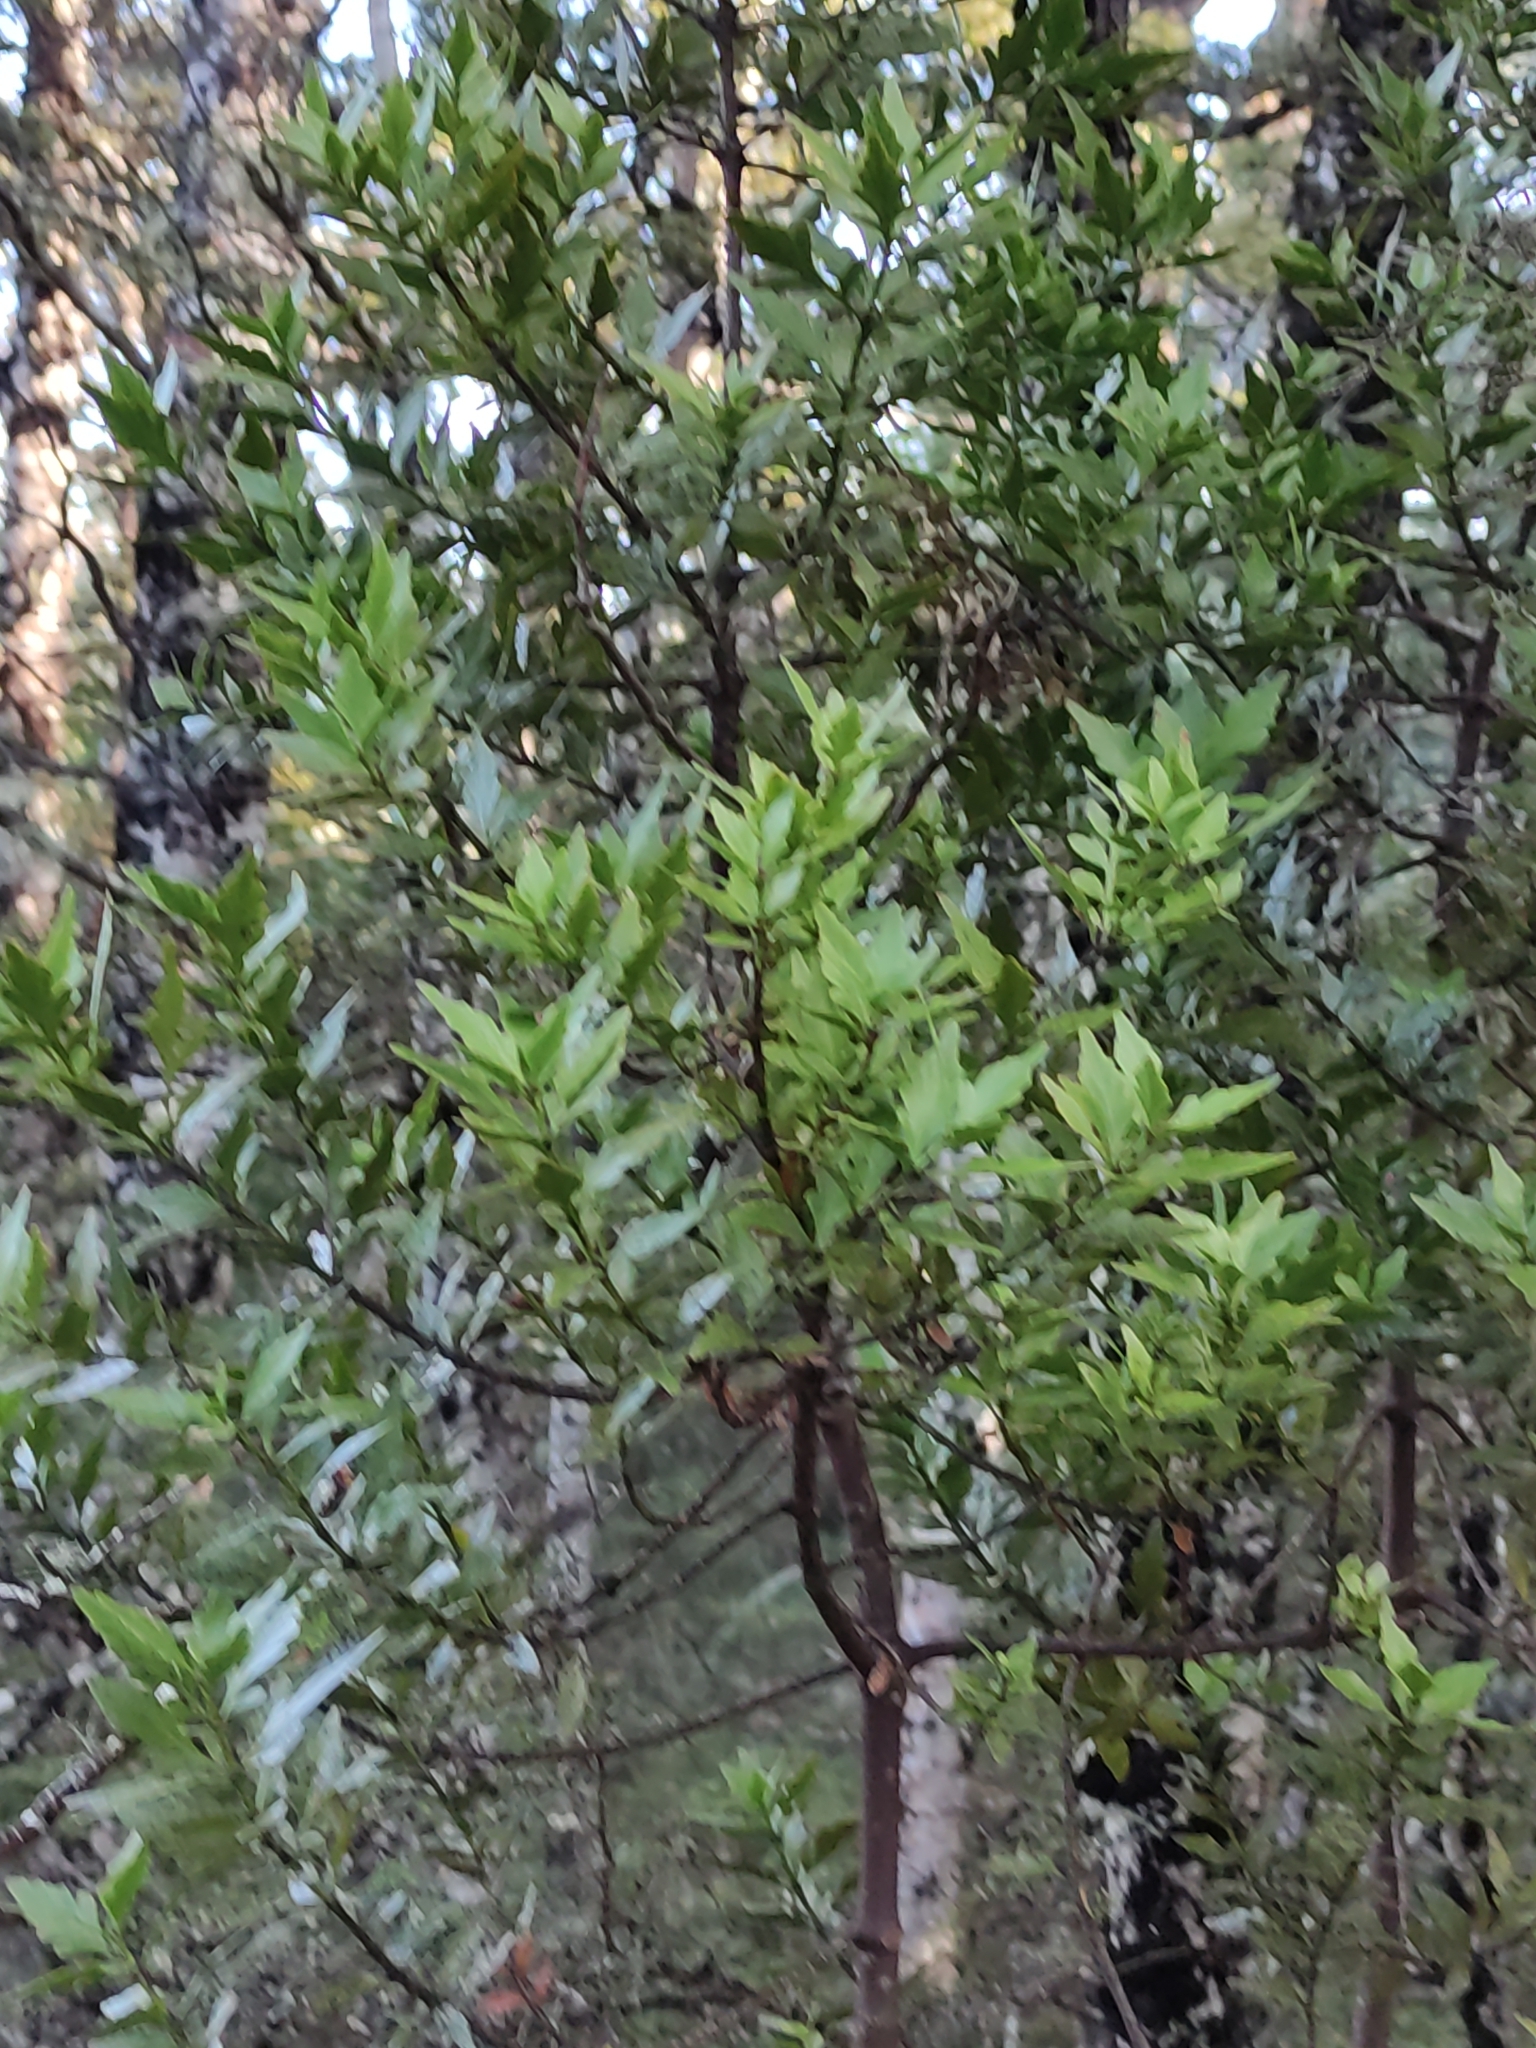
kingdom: Plantae
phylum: Tracheophyta
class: Pinopsida
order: Pinales
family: Phyllocladaceae
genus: Phyllocladus
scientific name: Phyllocladus trichomanoides
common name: Celery pine
